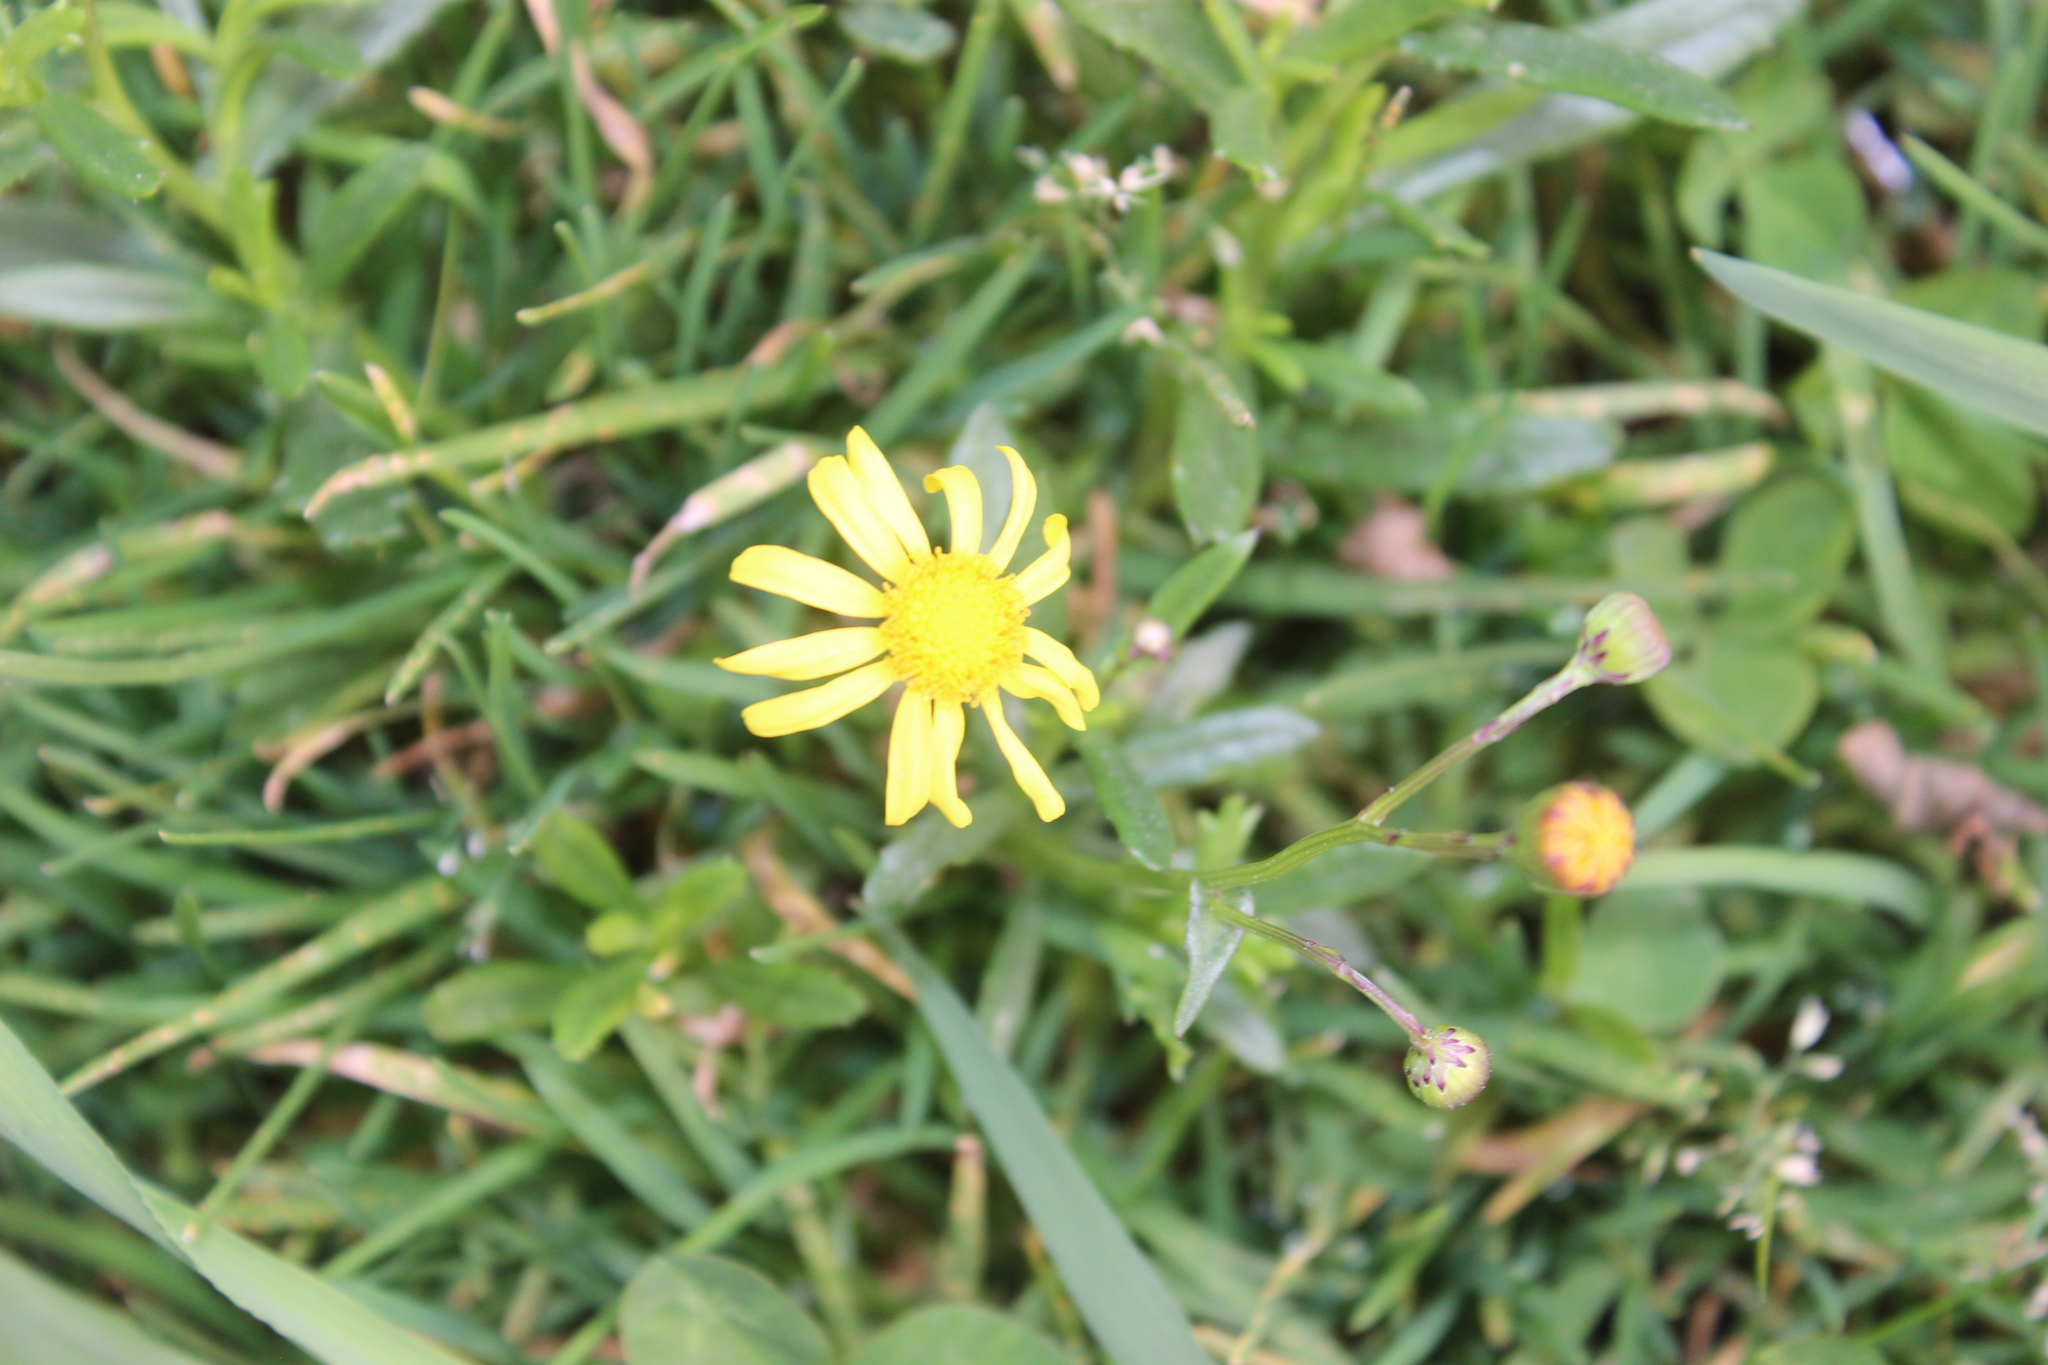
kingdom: Plantae
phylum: Tracheophyta
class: Magnoliopsida
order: Asterales
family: Asteraceae
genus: Senecio
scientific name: Senecio skirrhodon
